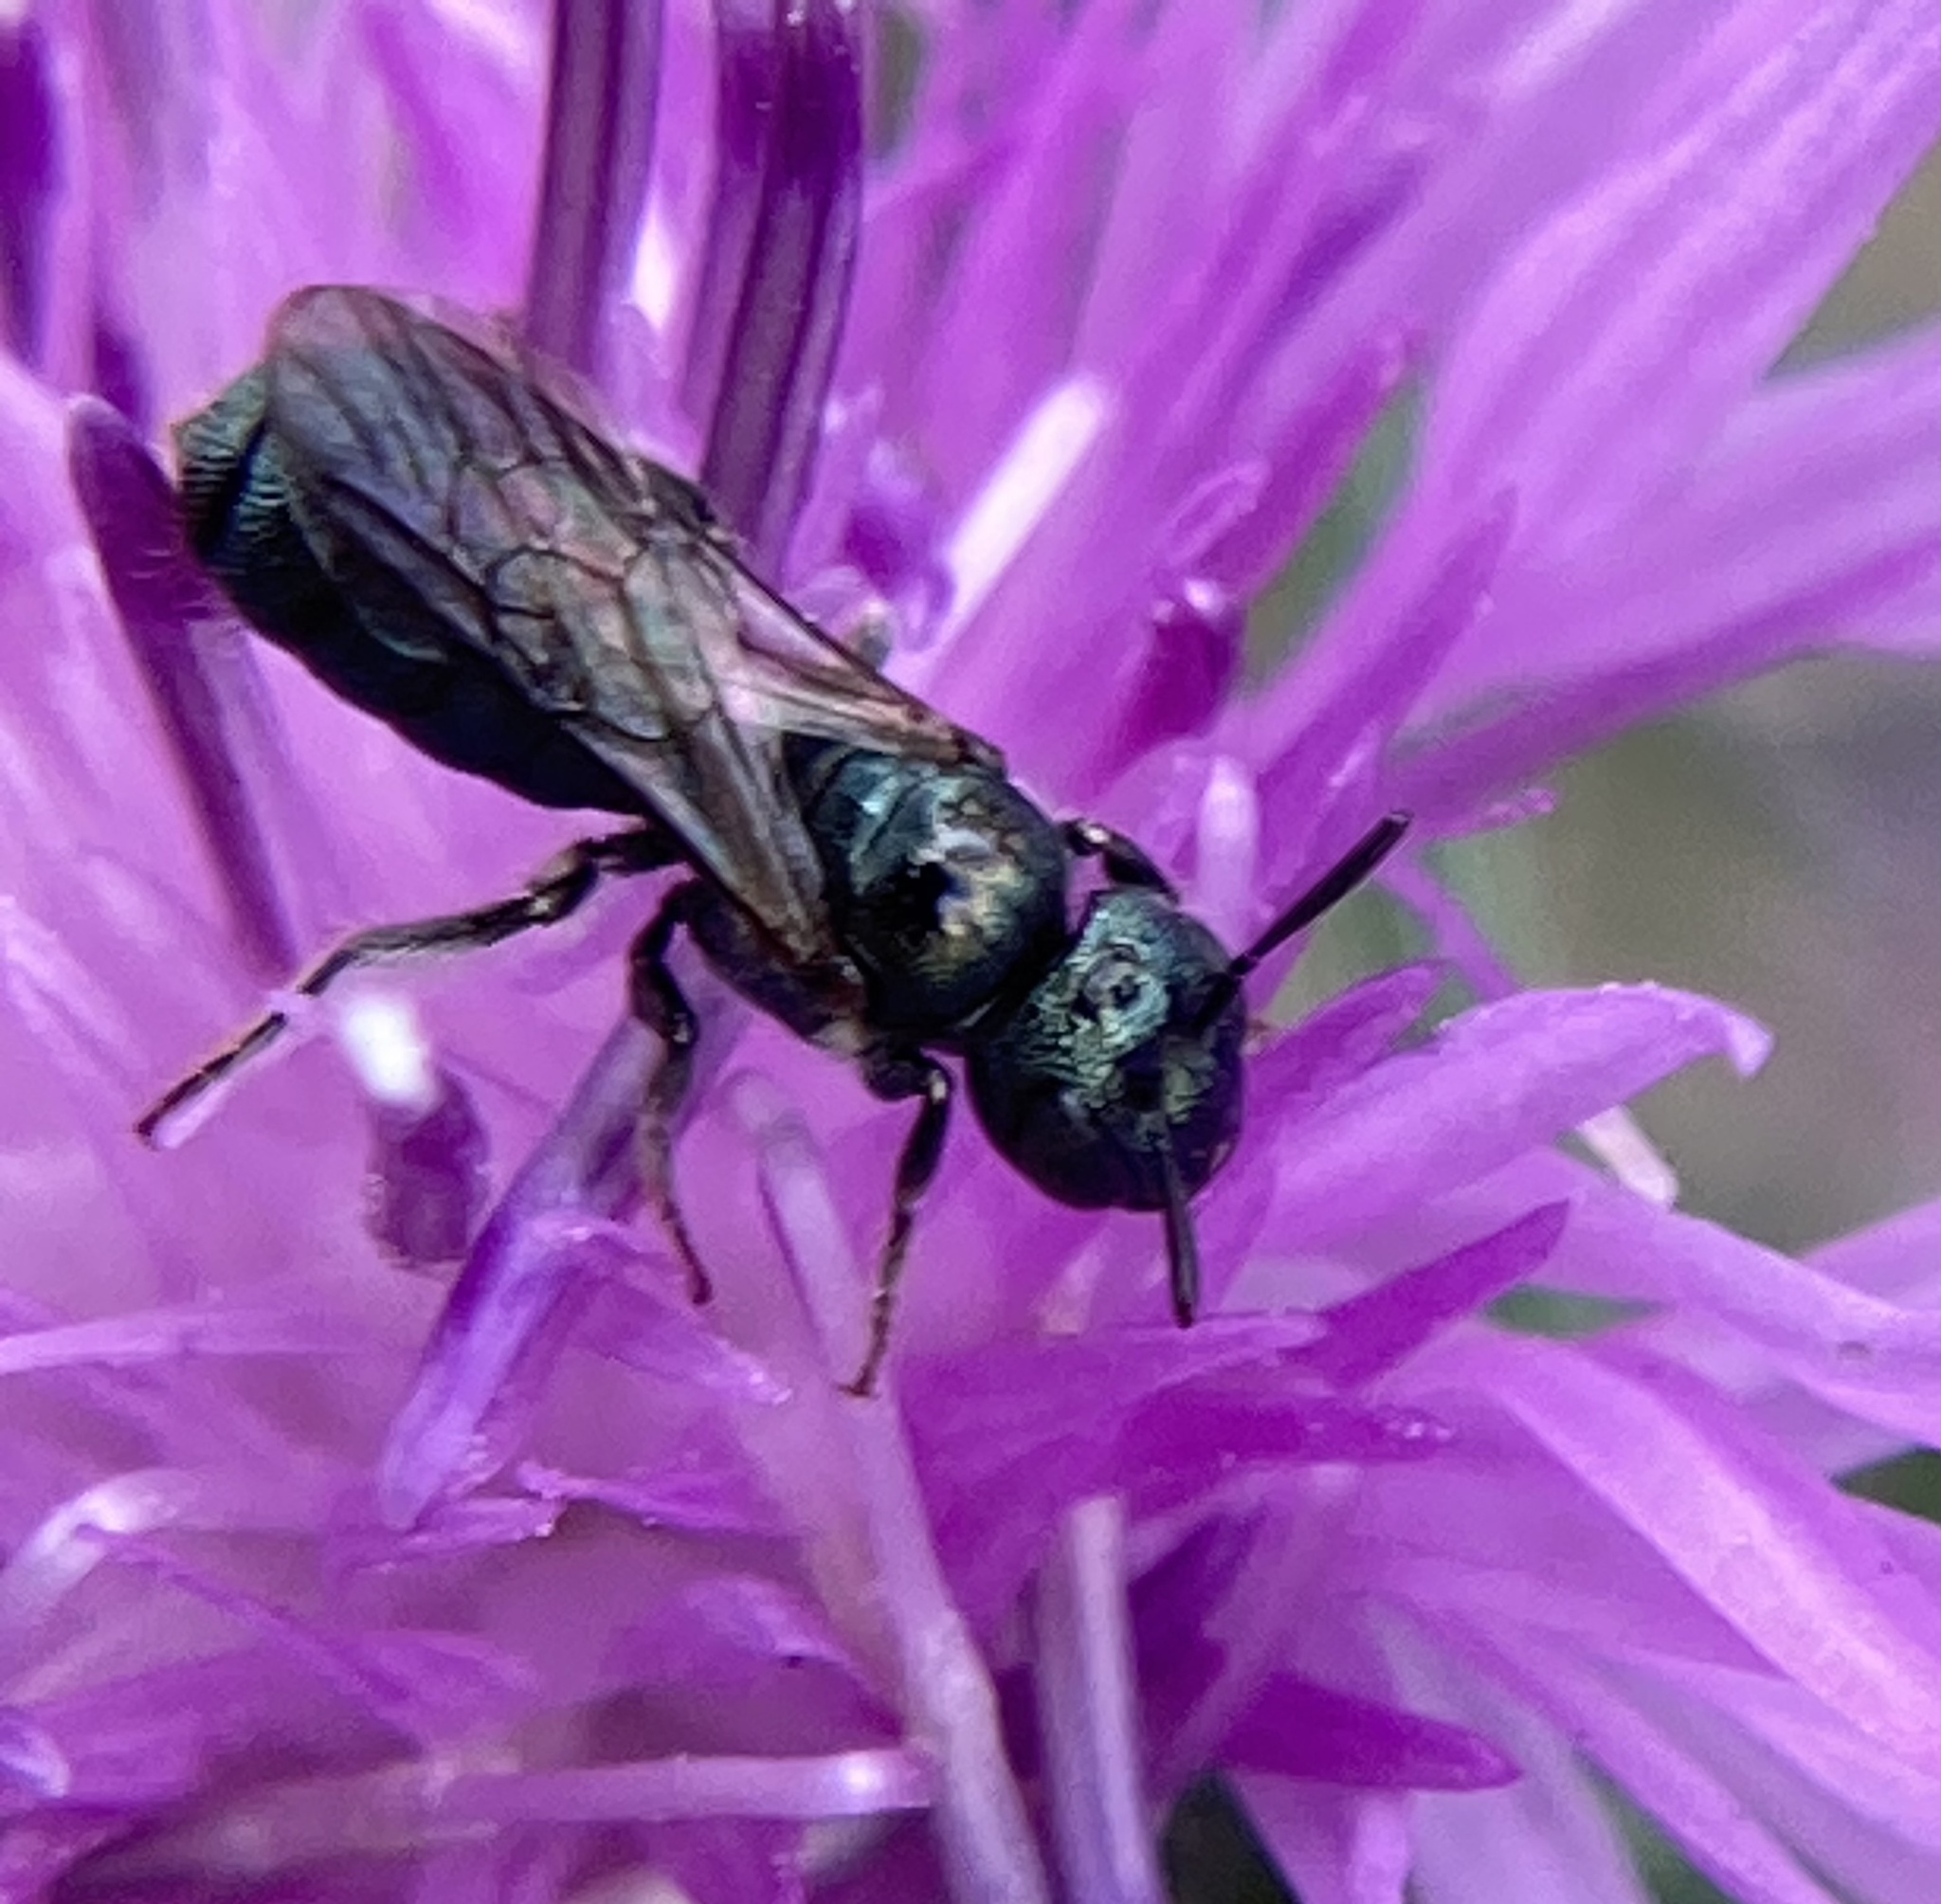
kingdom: Animalia
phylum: Arthropoda
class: Insecta
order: Hymenoptera
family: Apidae
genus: Zadontomerus
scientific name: Zadontomerus
